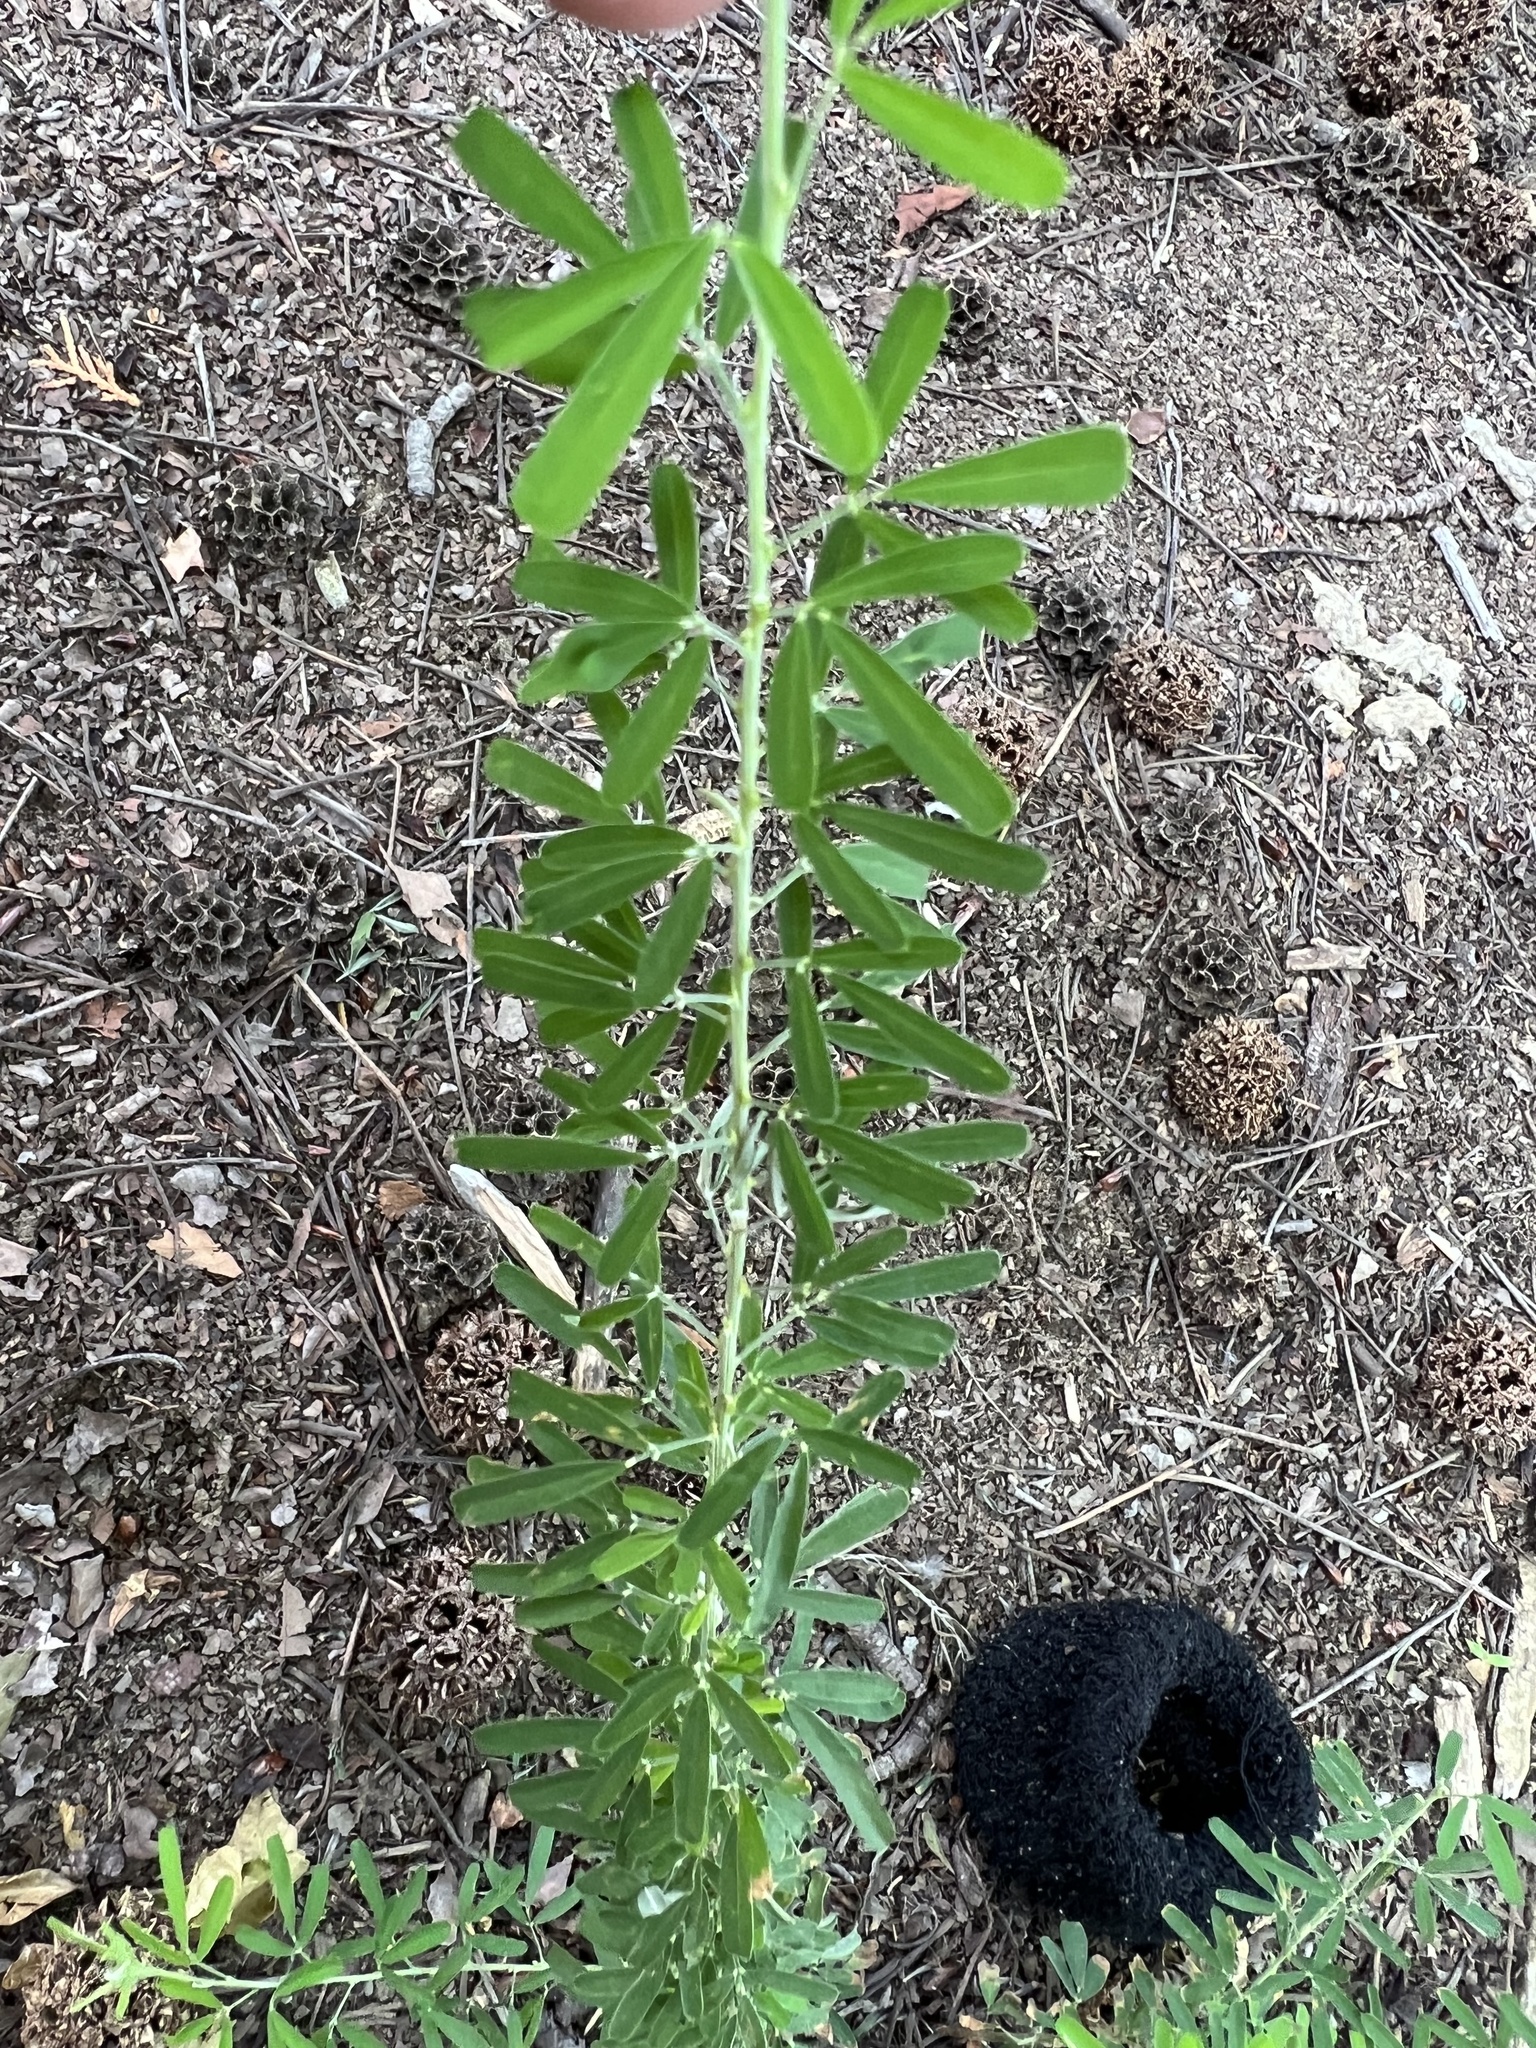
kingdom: Plantae
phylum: Tracheophyta
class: Magnoliopsida
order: Fabales
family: Fabaceae
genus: Lespedeza
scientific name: Lespedeza cuneata
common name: Chinese bush-clover
